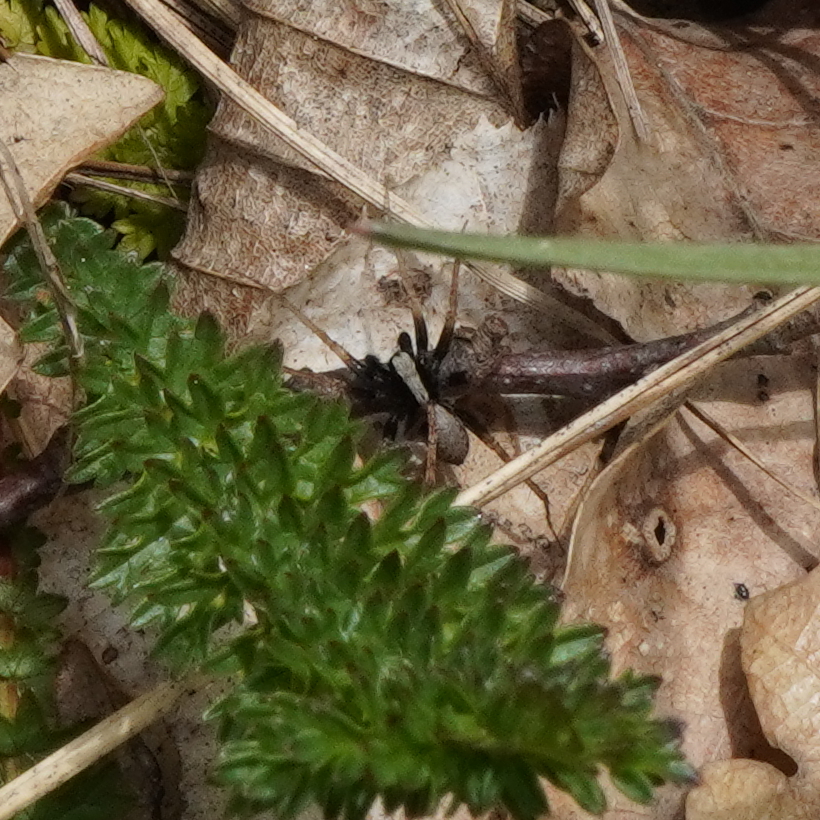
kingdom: Animalia
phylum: Arthropoda
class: Arachnida
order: Araneae
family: Lycosidae
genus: Pardosa
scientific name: Pardosa
